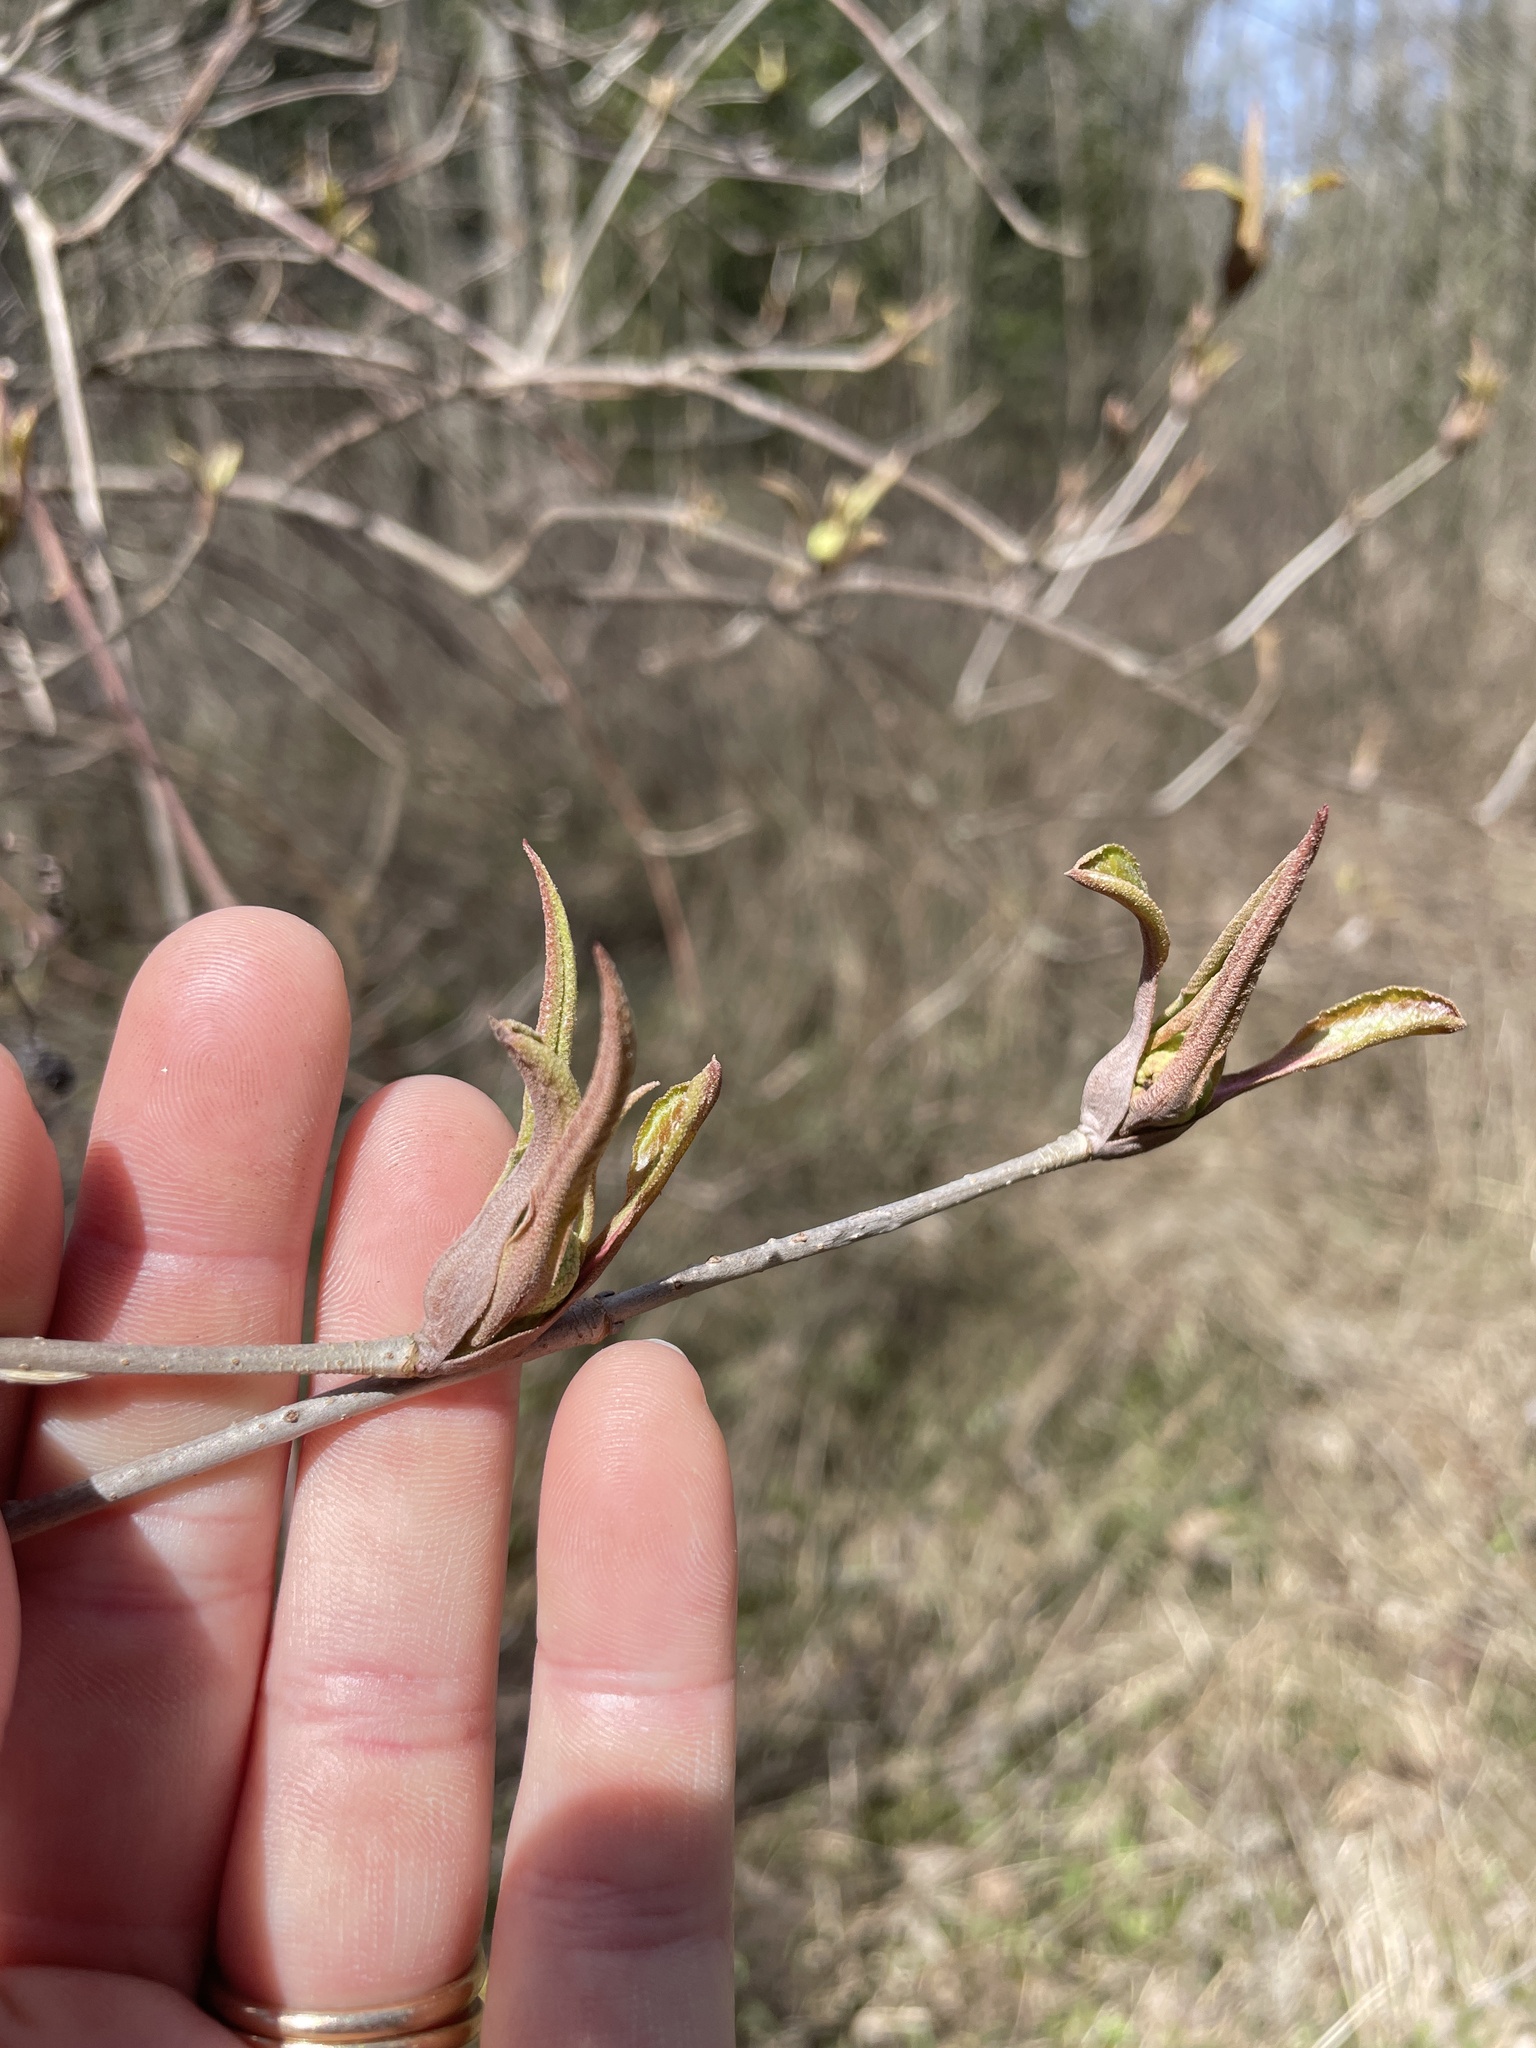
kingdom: Plantae
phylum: Tracheophyta
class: Magnoliopsida
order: Dipsacales
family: Viburnaceae
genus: Viburnum
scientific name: Viburnum lentago
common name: Black haw
